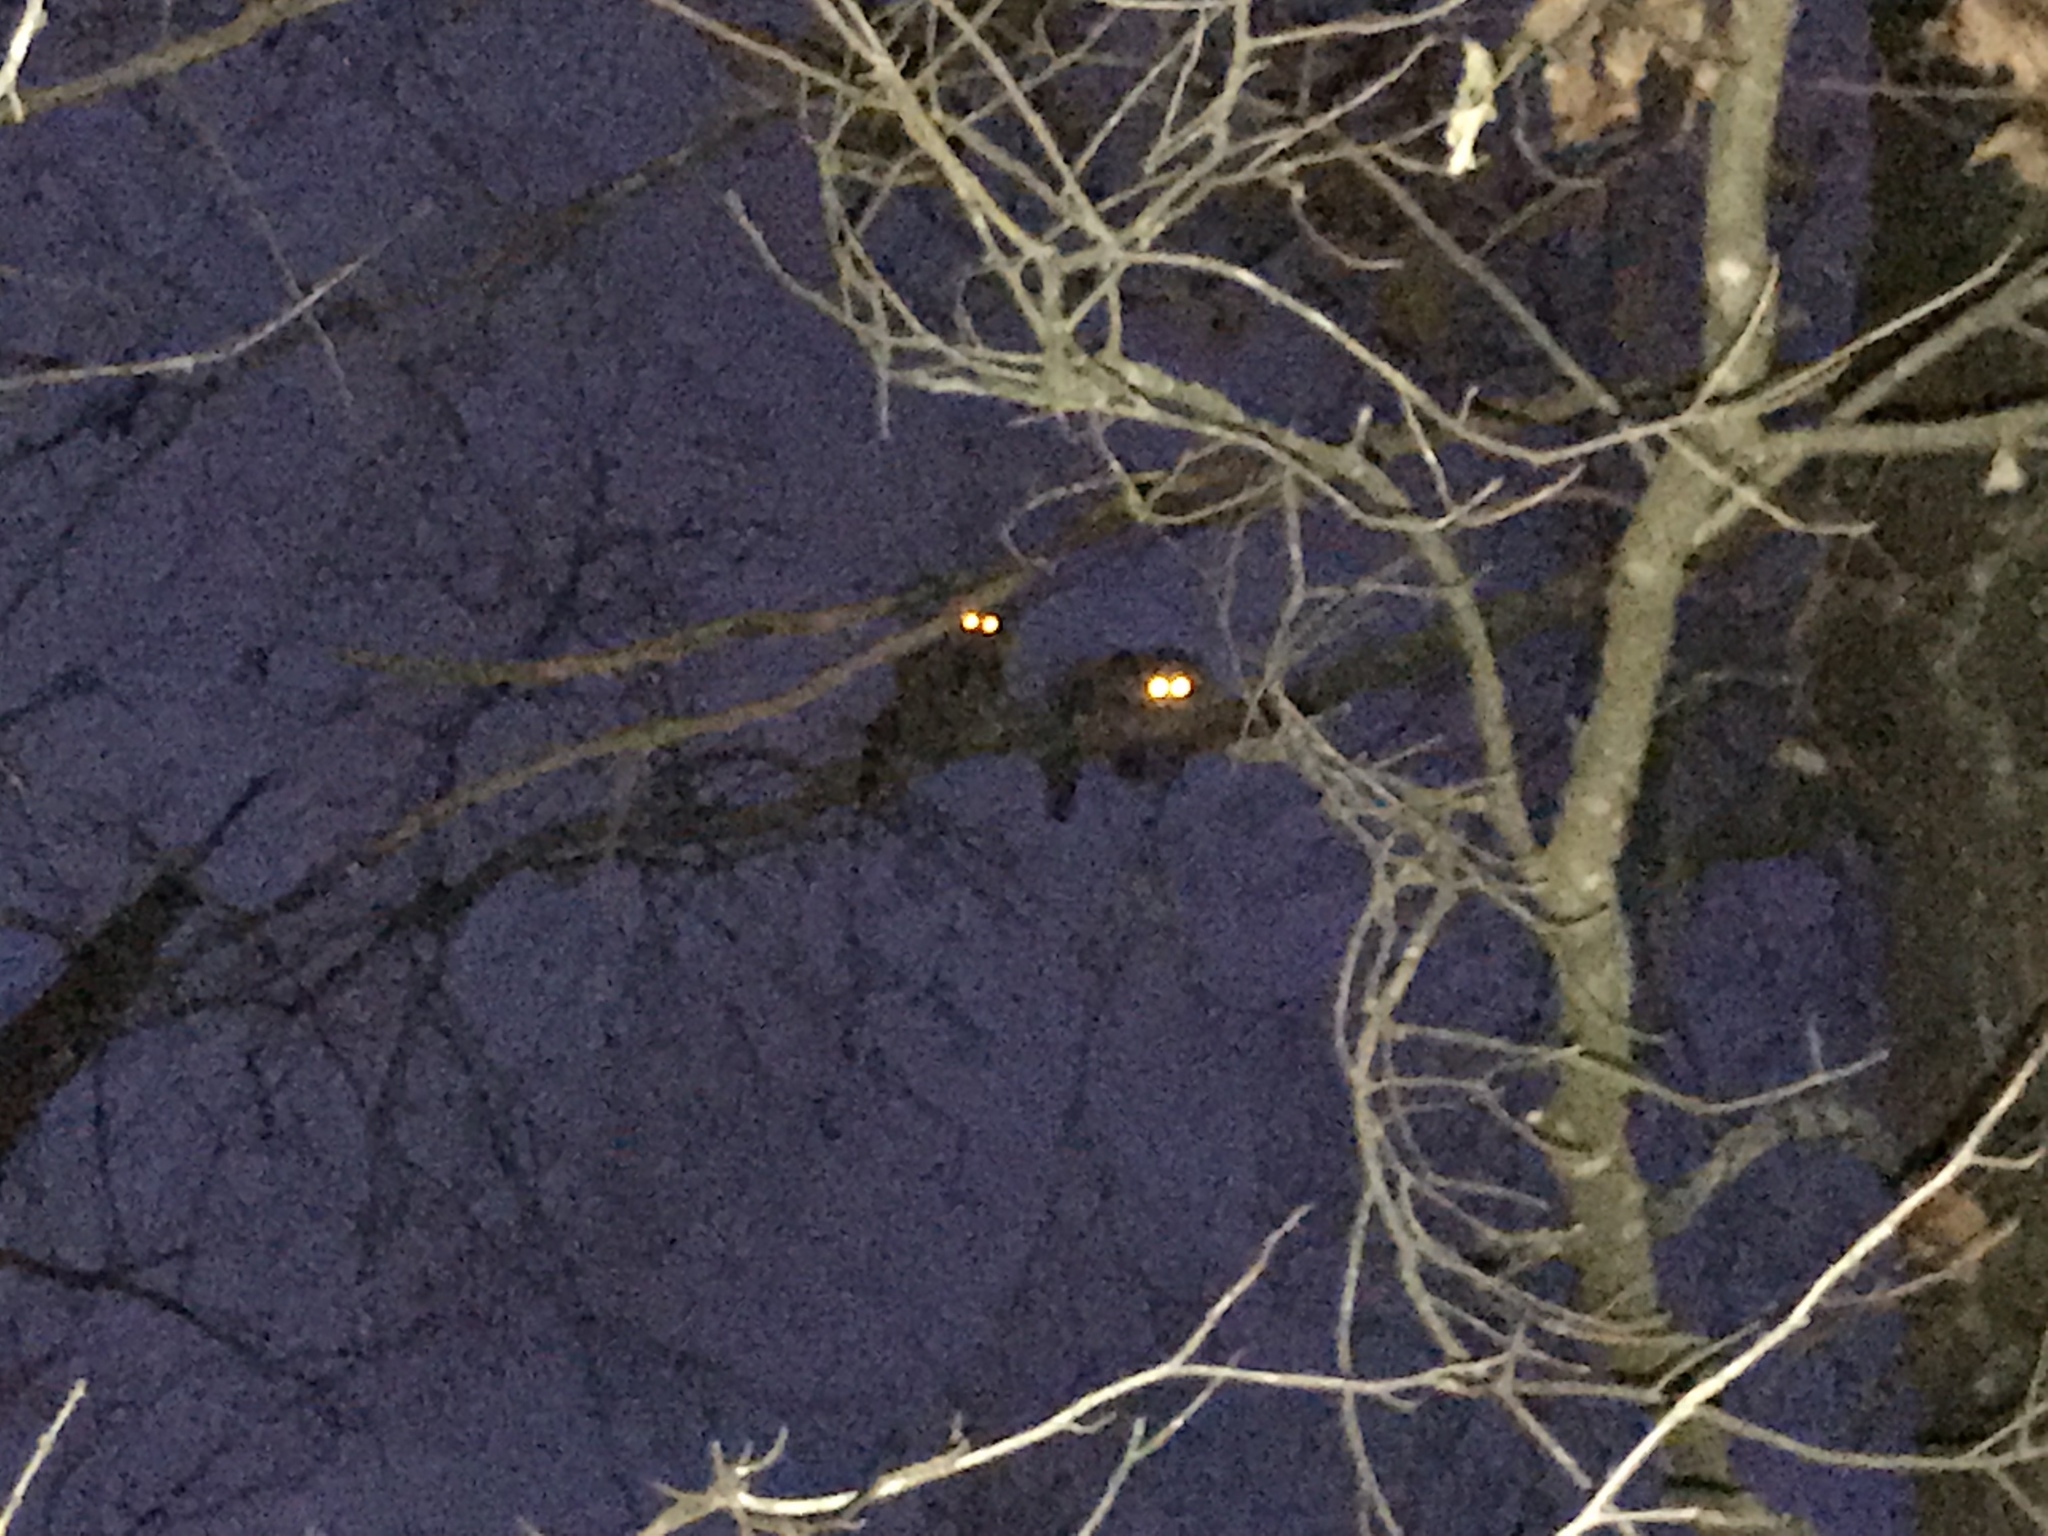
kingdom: Animalia
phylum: Chordata
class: Mammalia
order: Carnivora
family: Procyonidae
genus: Procyon
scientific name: Procyon lotor
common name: Raccoon
